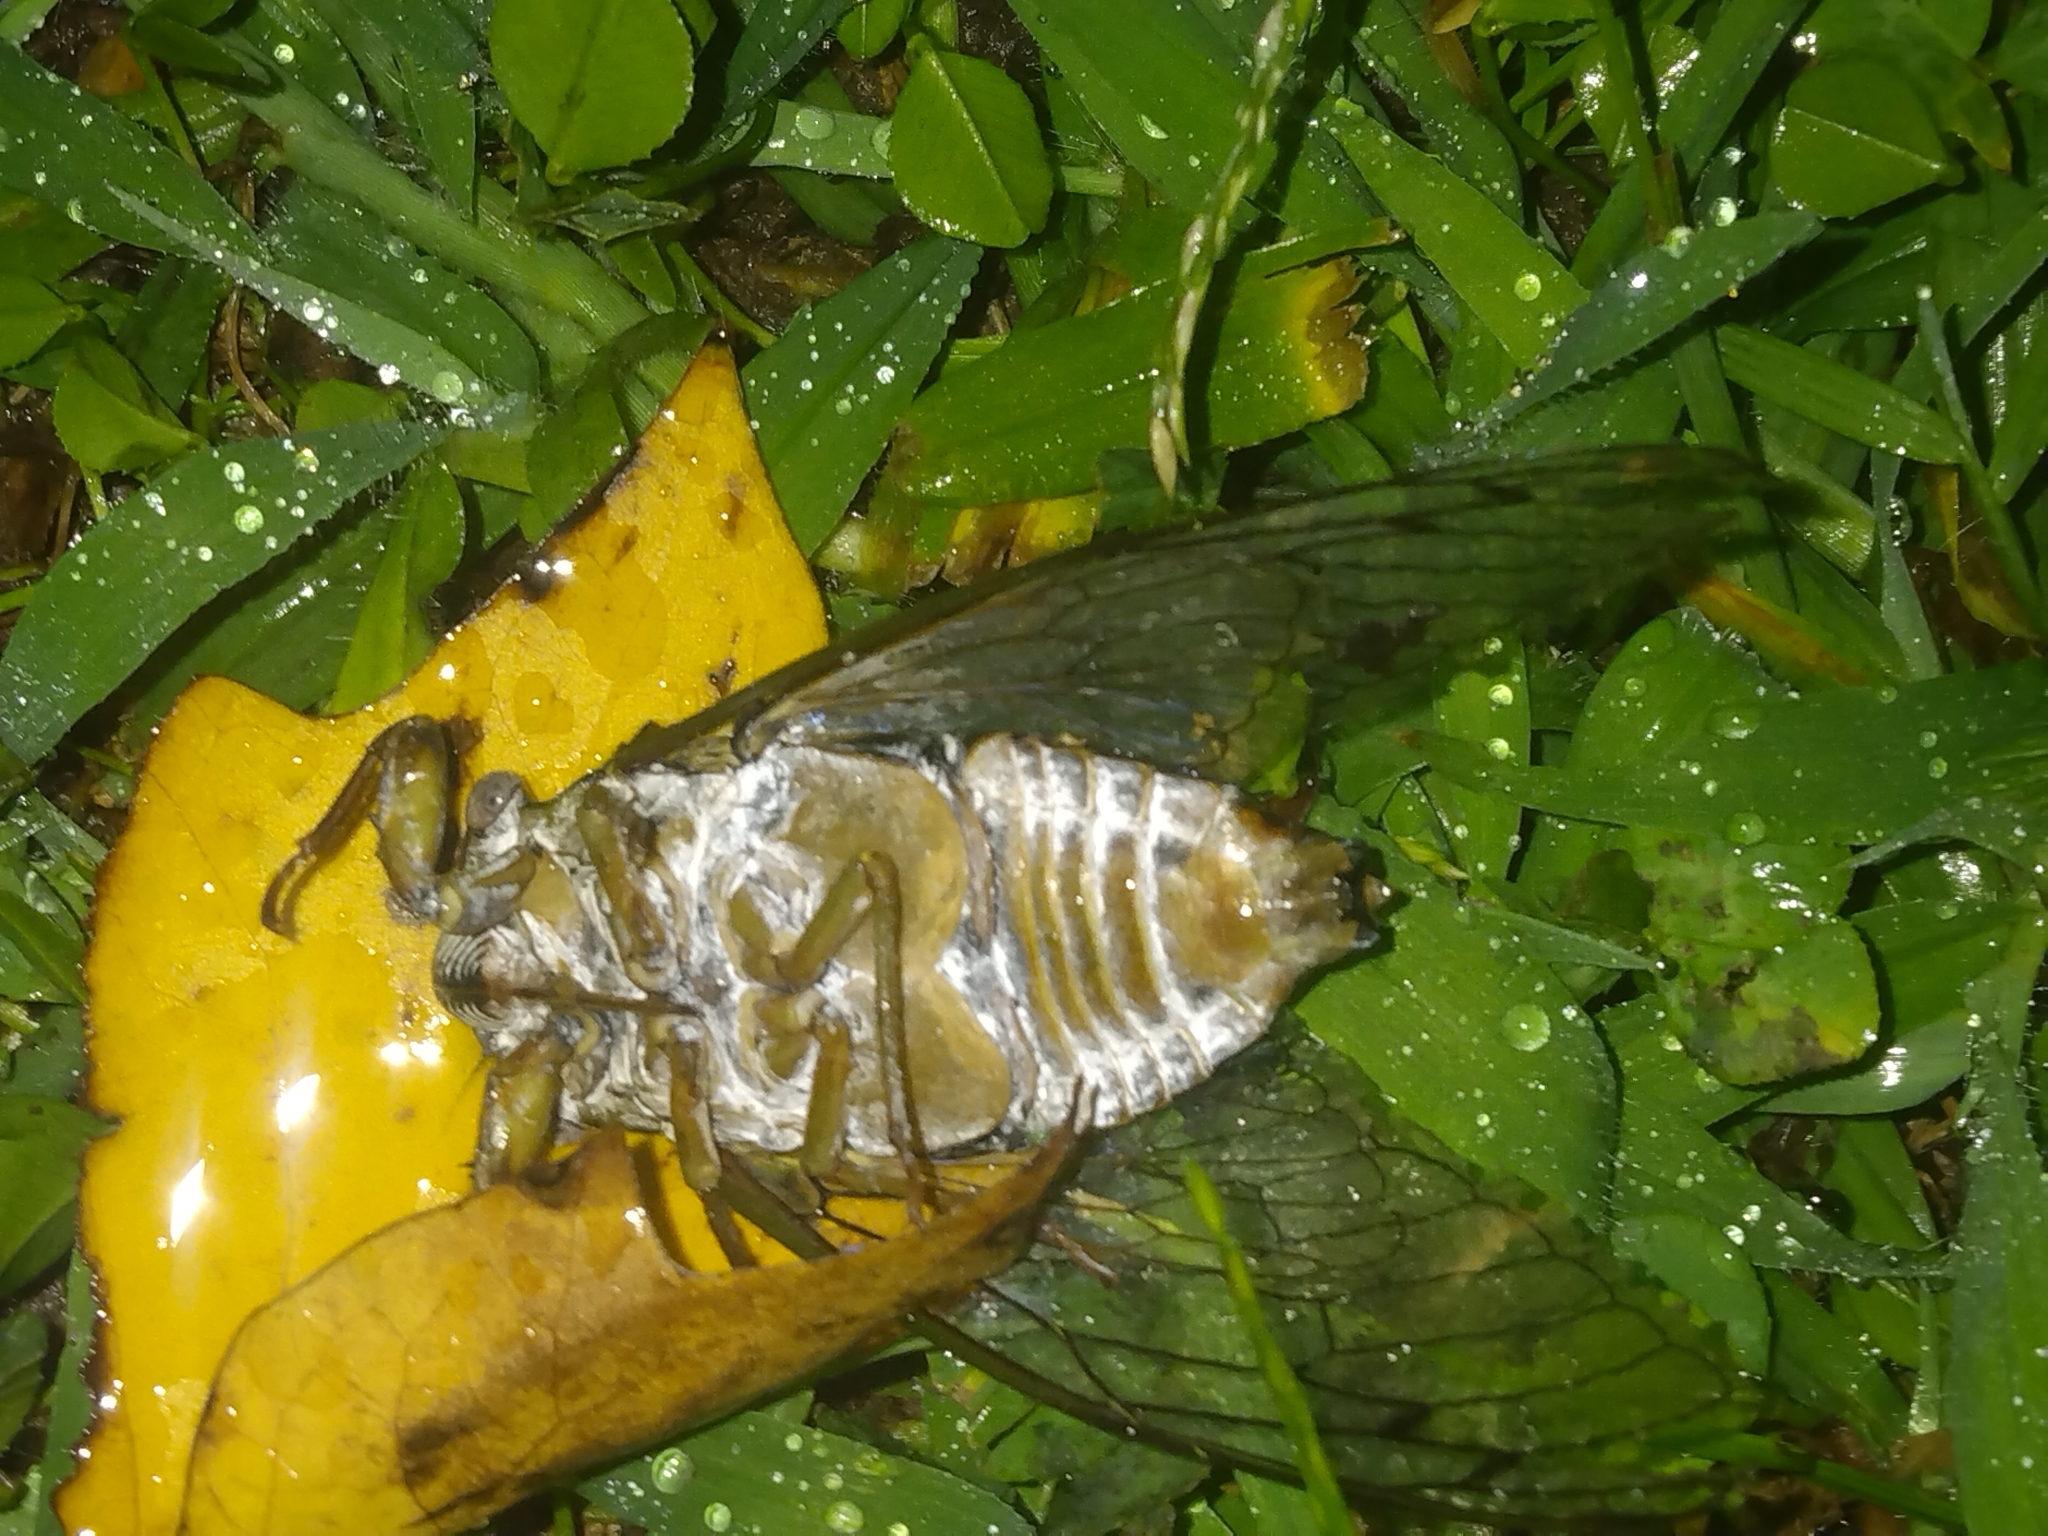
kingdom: Animalia
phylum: Arthropoda
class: Insecta
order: Hemiptera
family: Cicadidae
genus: Diceroprocta
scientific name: Diceroprocta grossa
